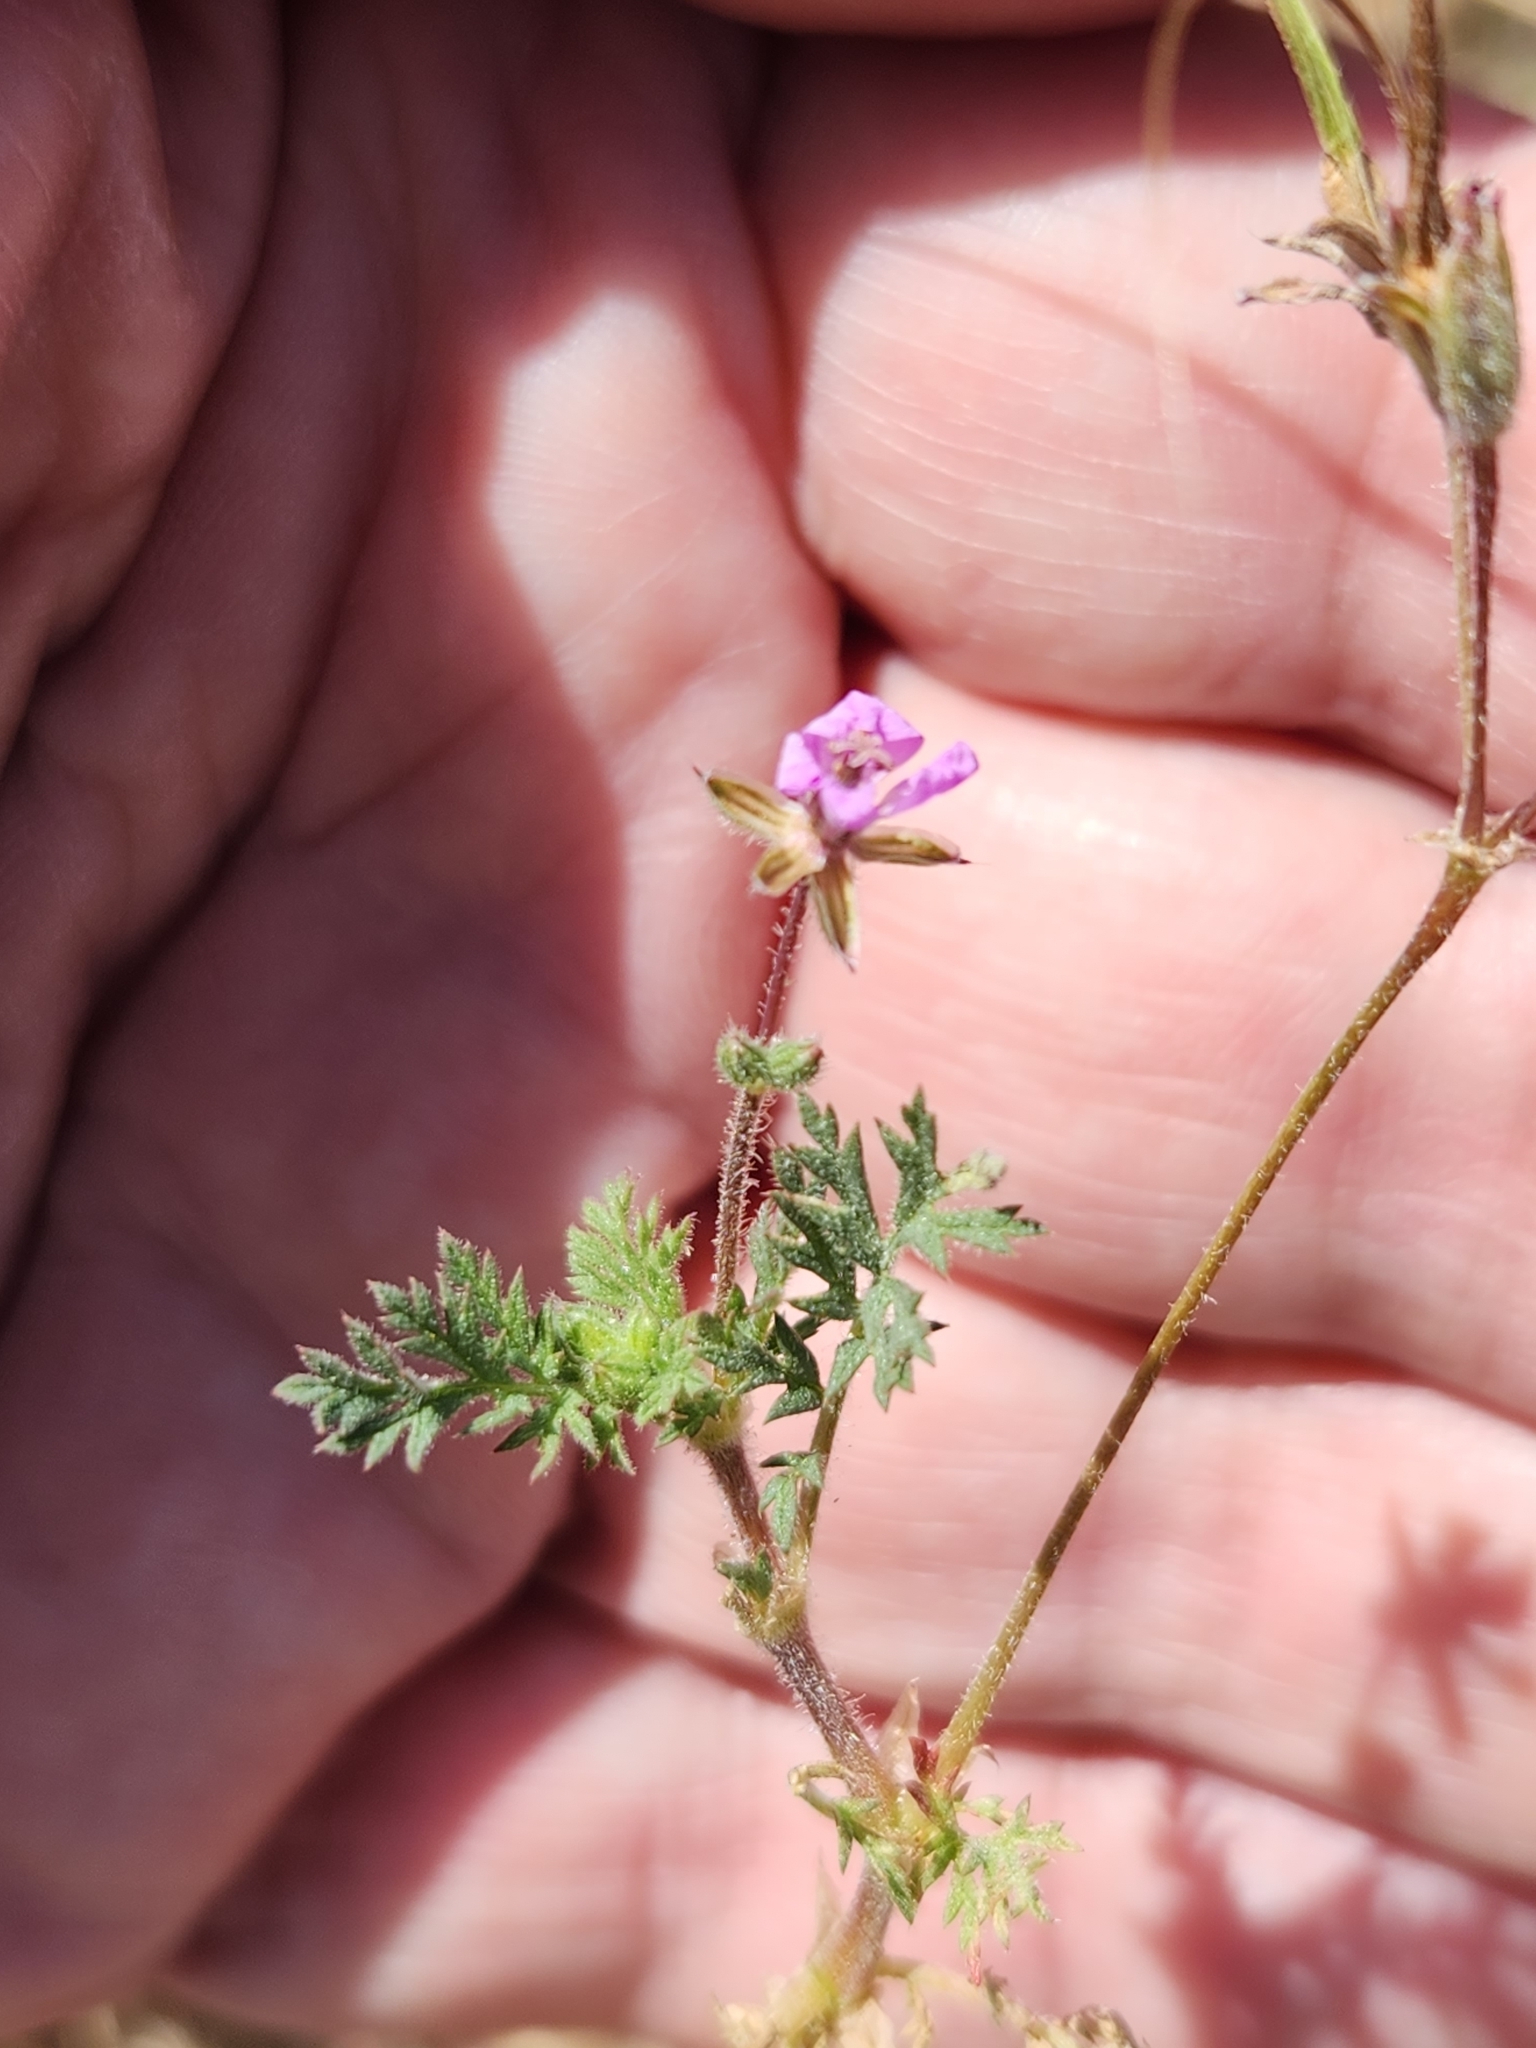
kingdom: Plantae
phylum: Tracheophyta
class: Magnoliopsida
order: Geraniales
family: Geraniaceae
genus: Erodium
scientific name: Erodium cicutarium
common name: Common stork's-bill
